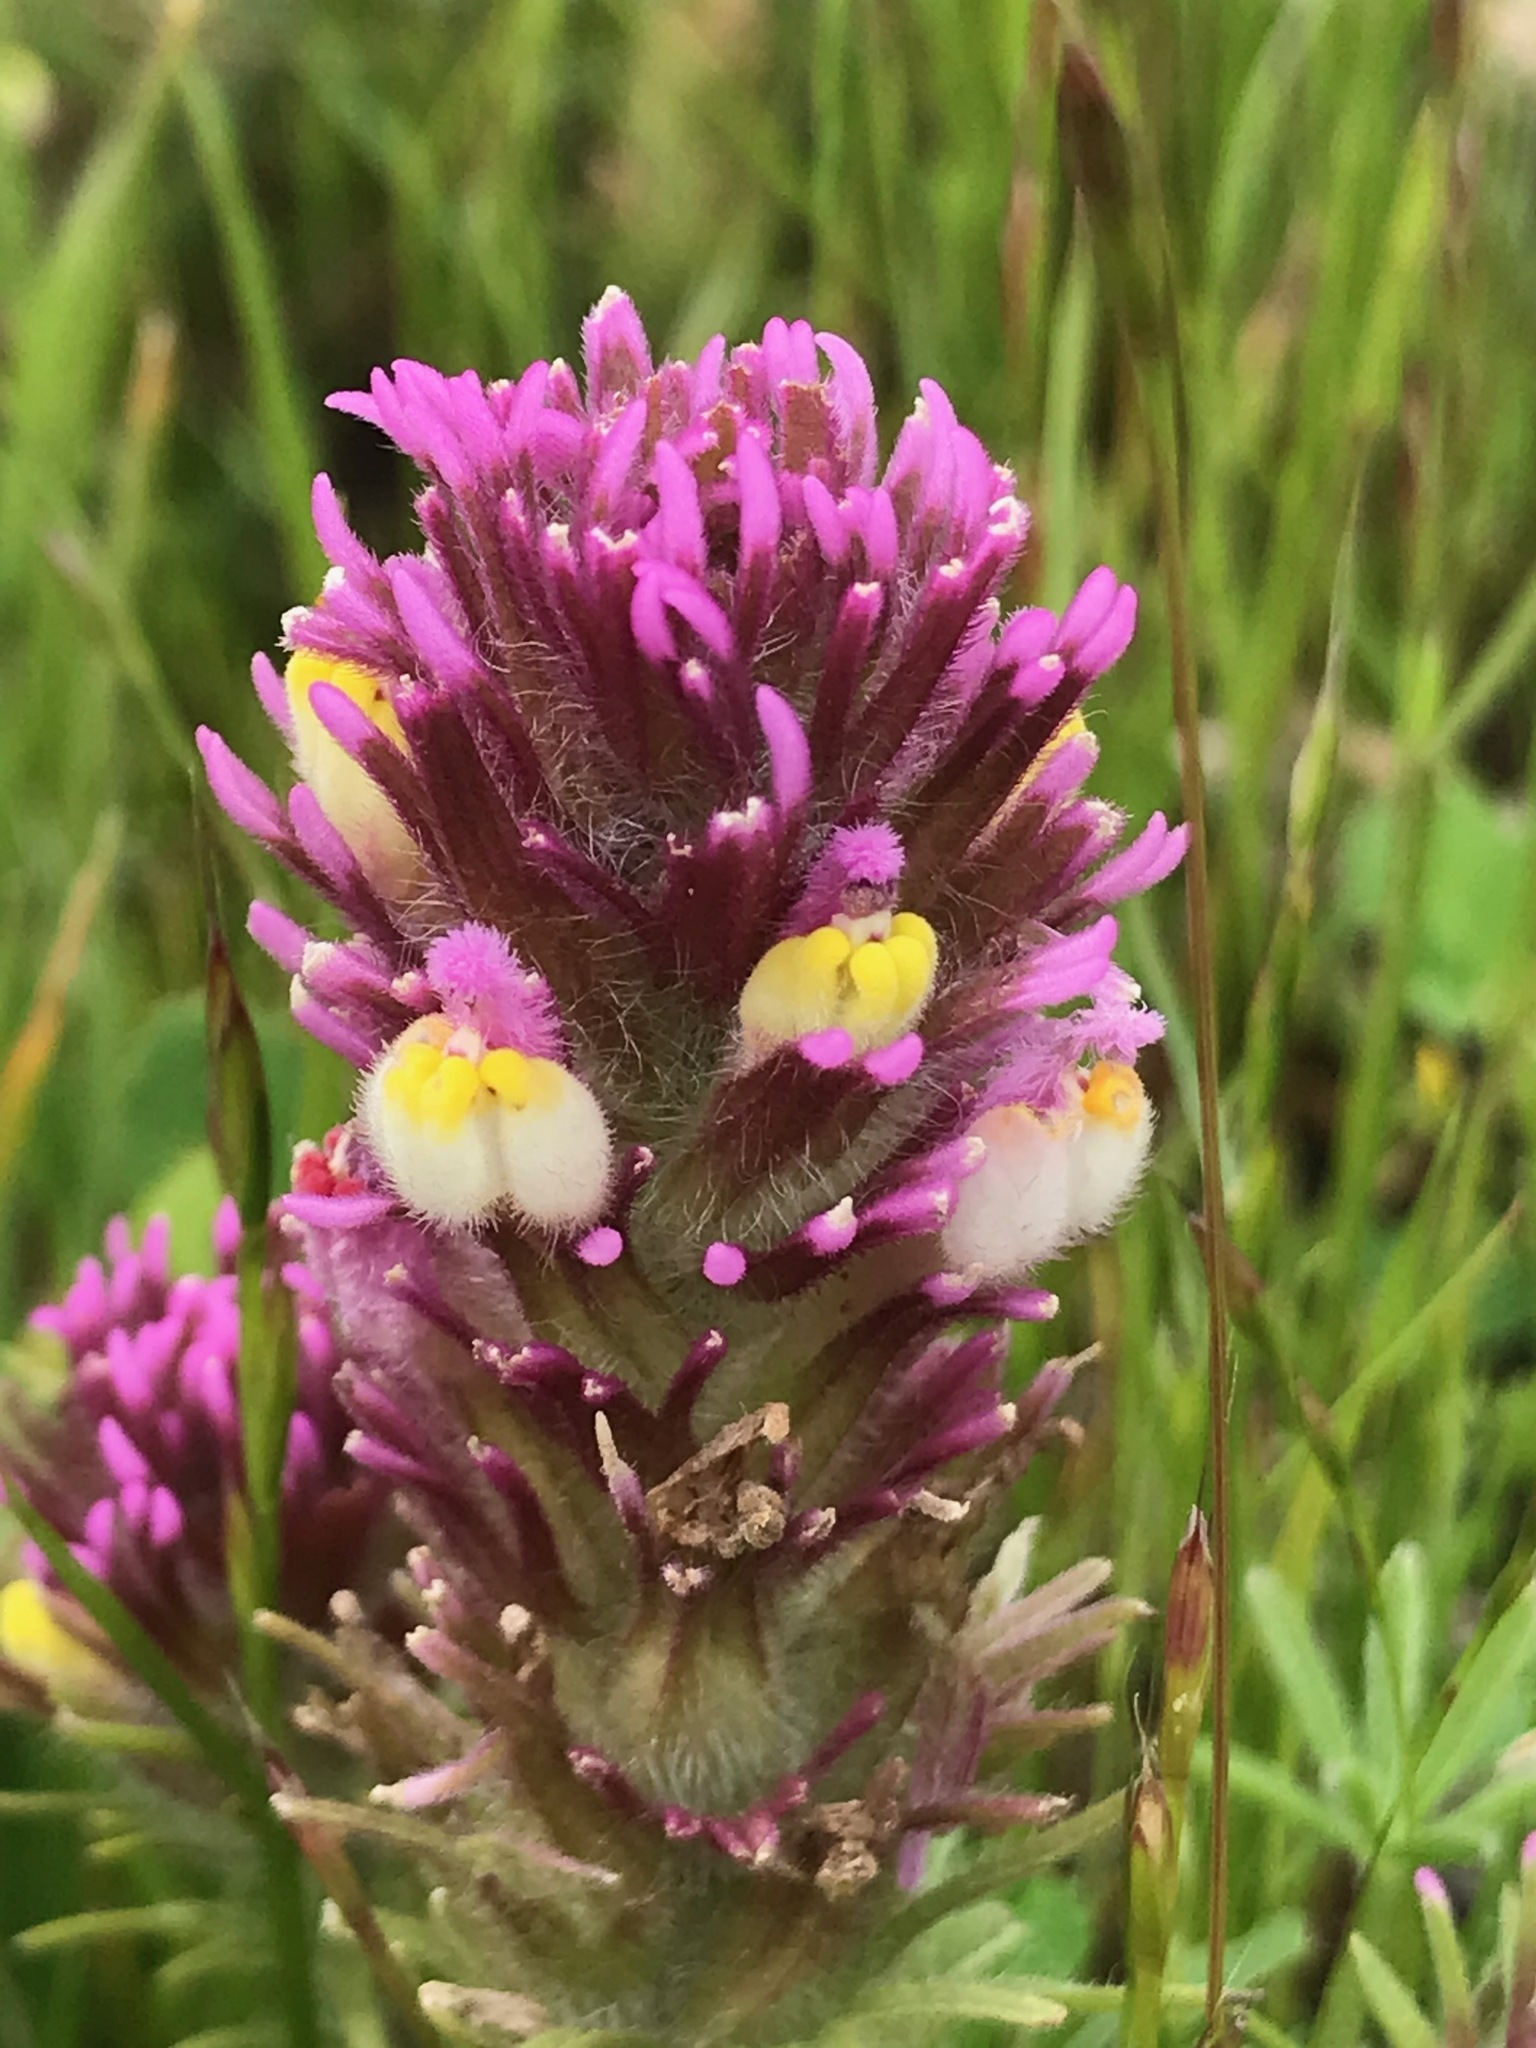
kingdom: Plantae
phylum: Tracheophyta
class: Magnoliopsida
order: Lamiales
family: Orobanchaceae
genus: Castilleja
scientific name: Castilleja exserta
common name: Purple owl-clover
